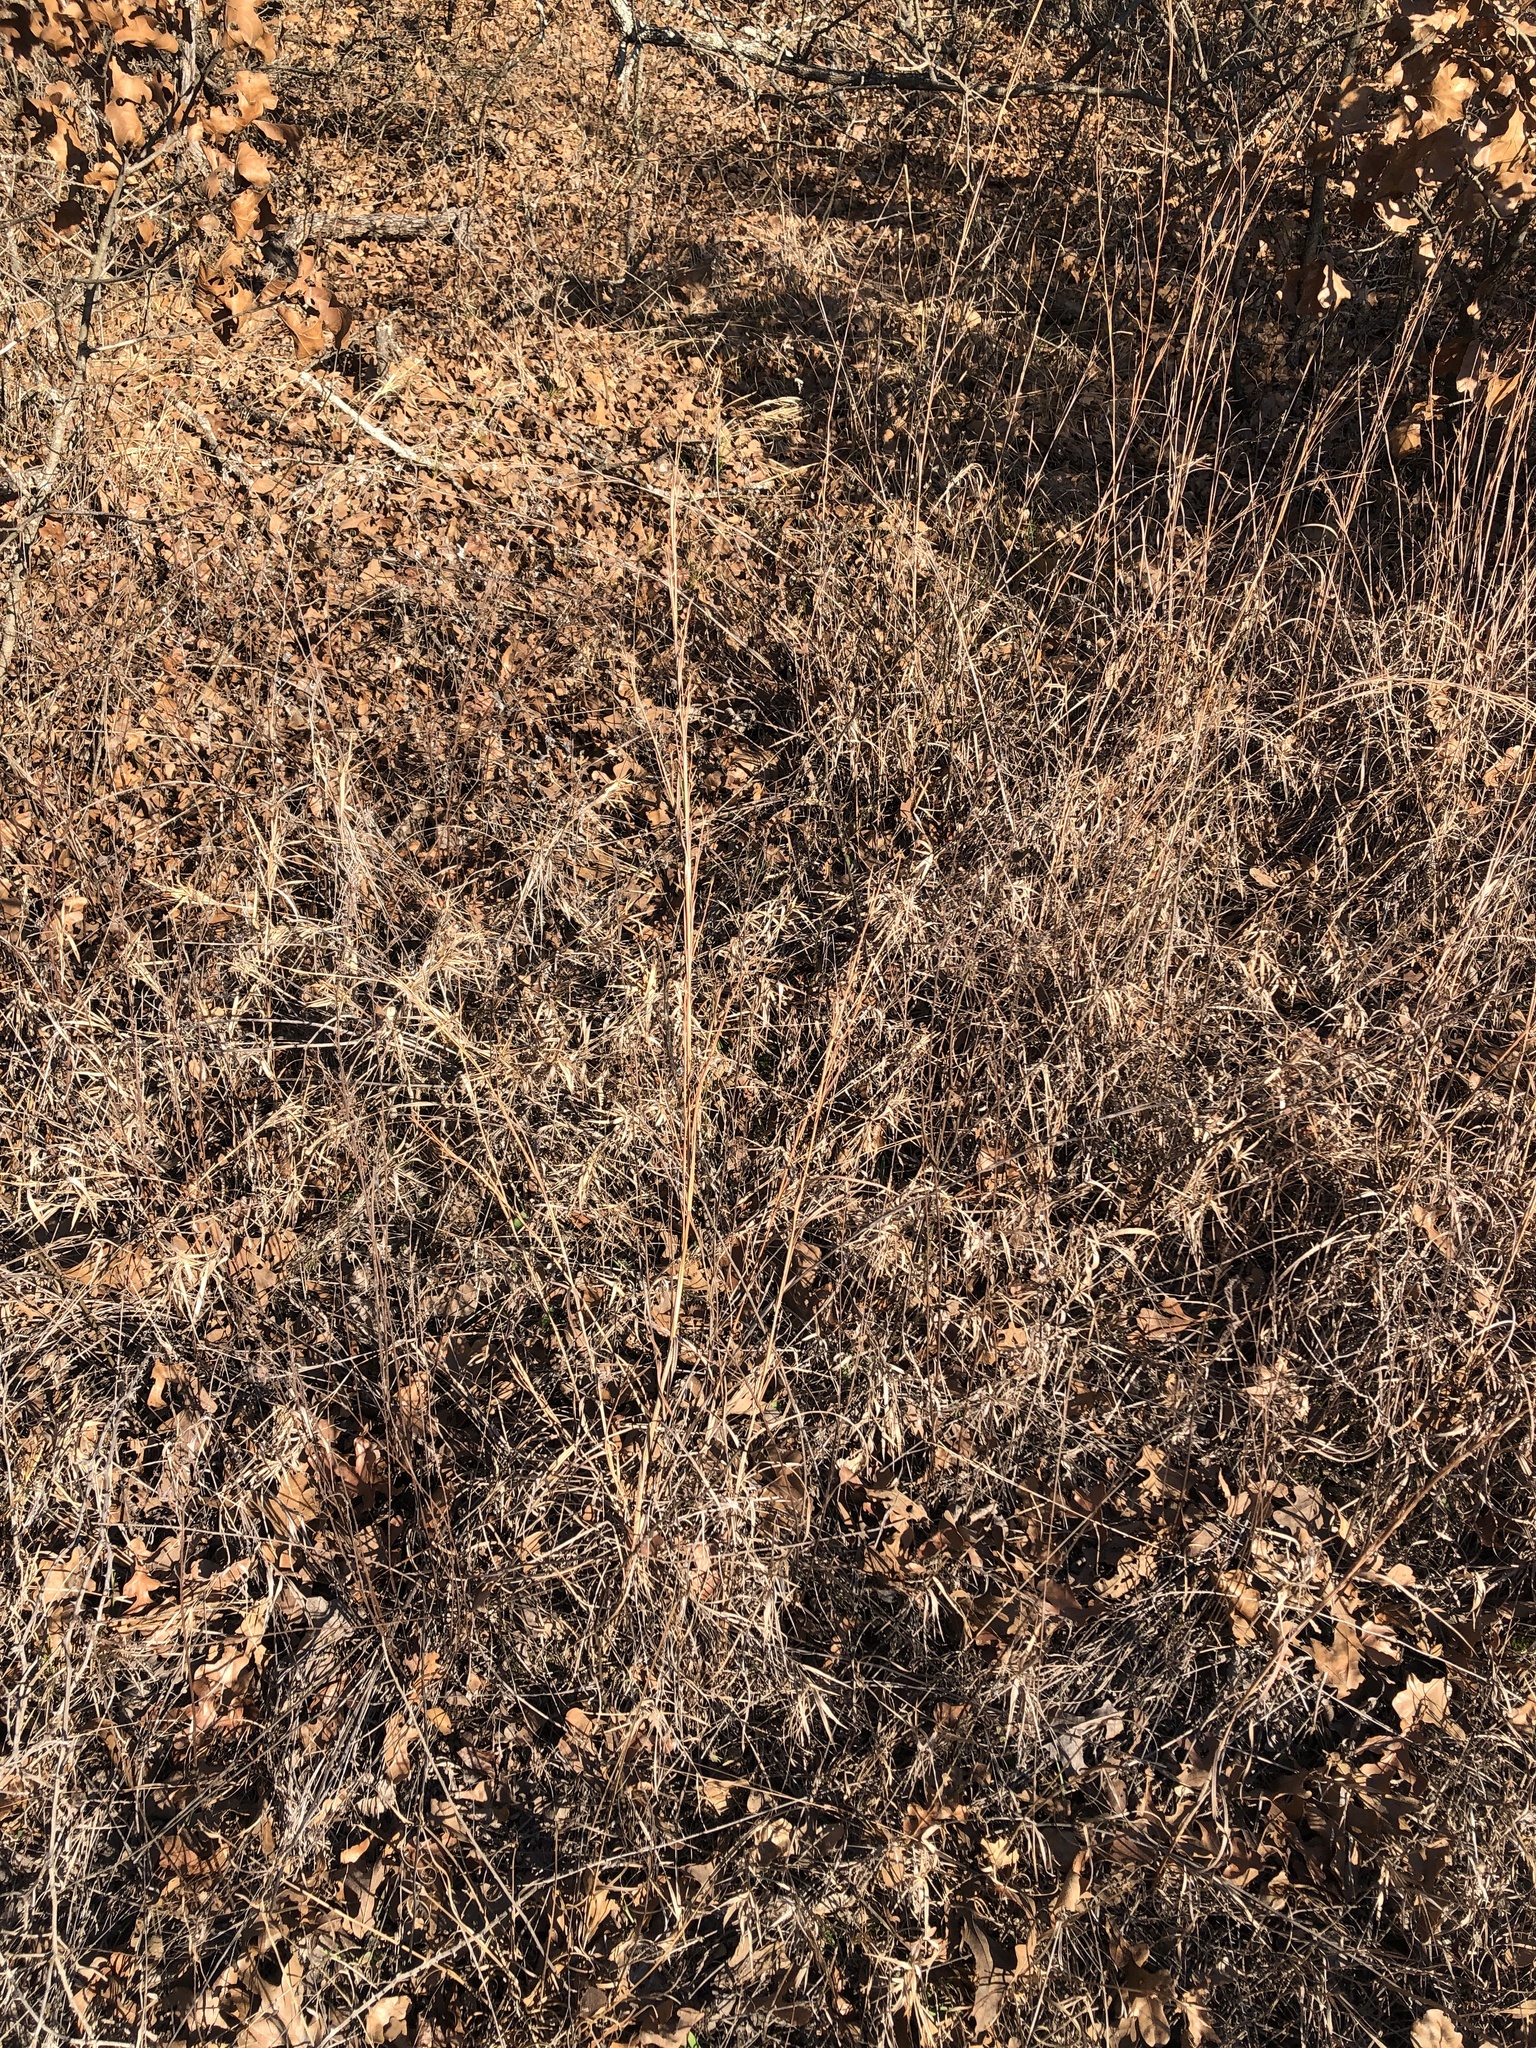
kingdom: Plantae
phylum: Tracheophyta
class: Liliopsida
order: Poales
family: Poaceae
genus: Schizachyrium
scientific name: Schizachyrium scoparium
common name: Little bluestem
